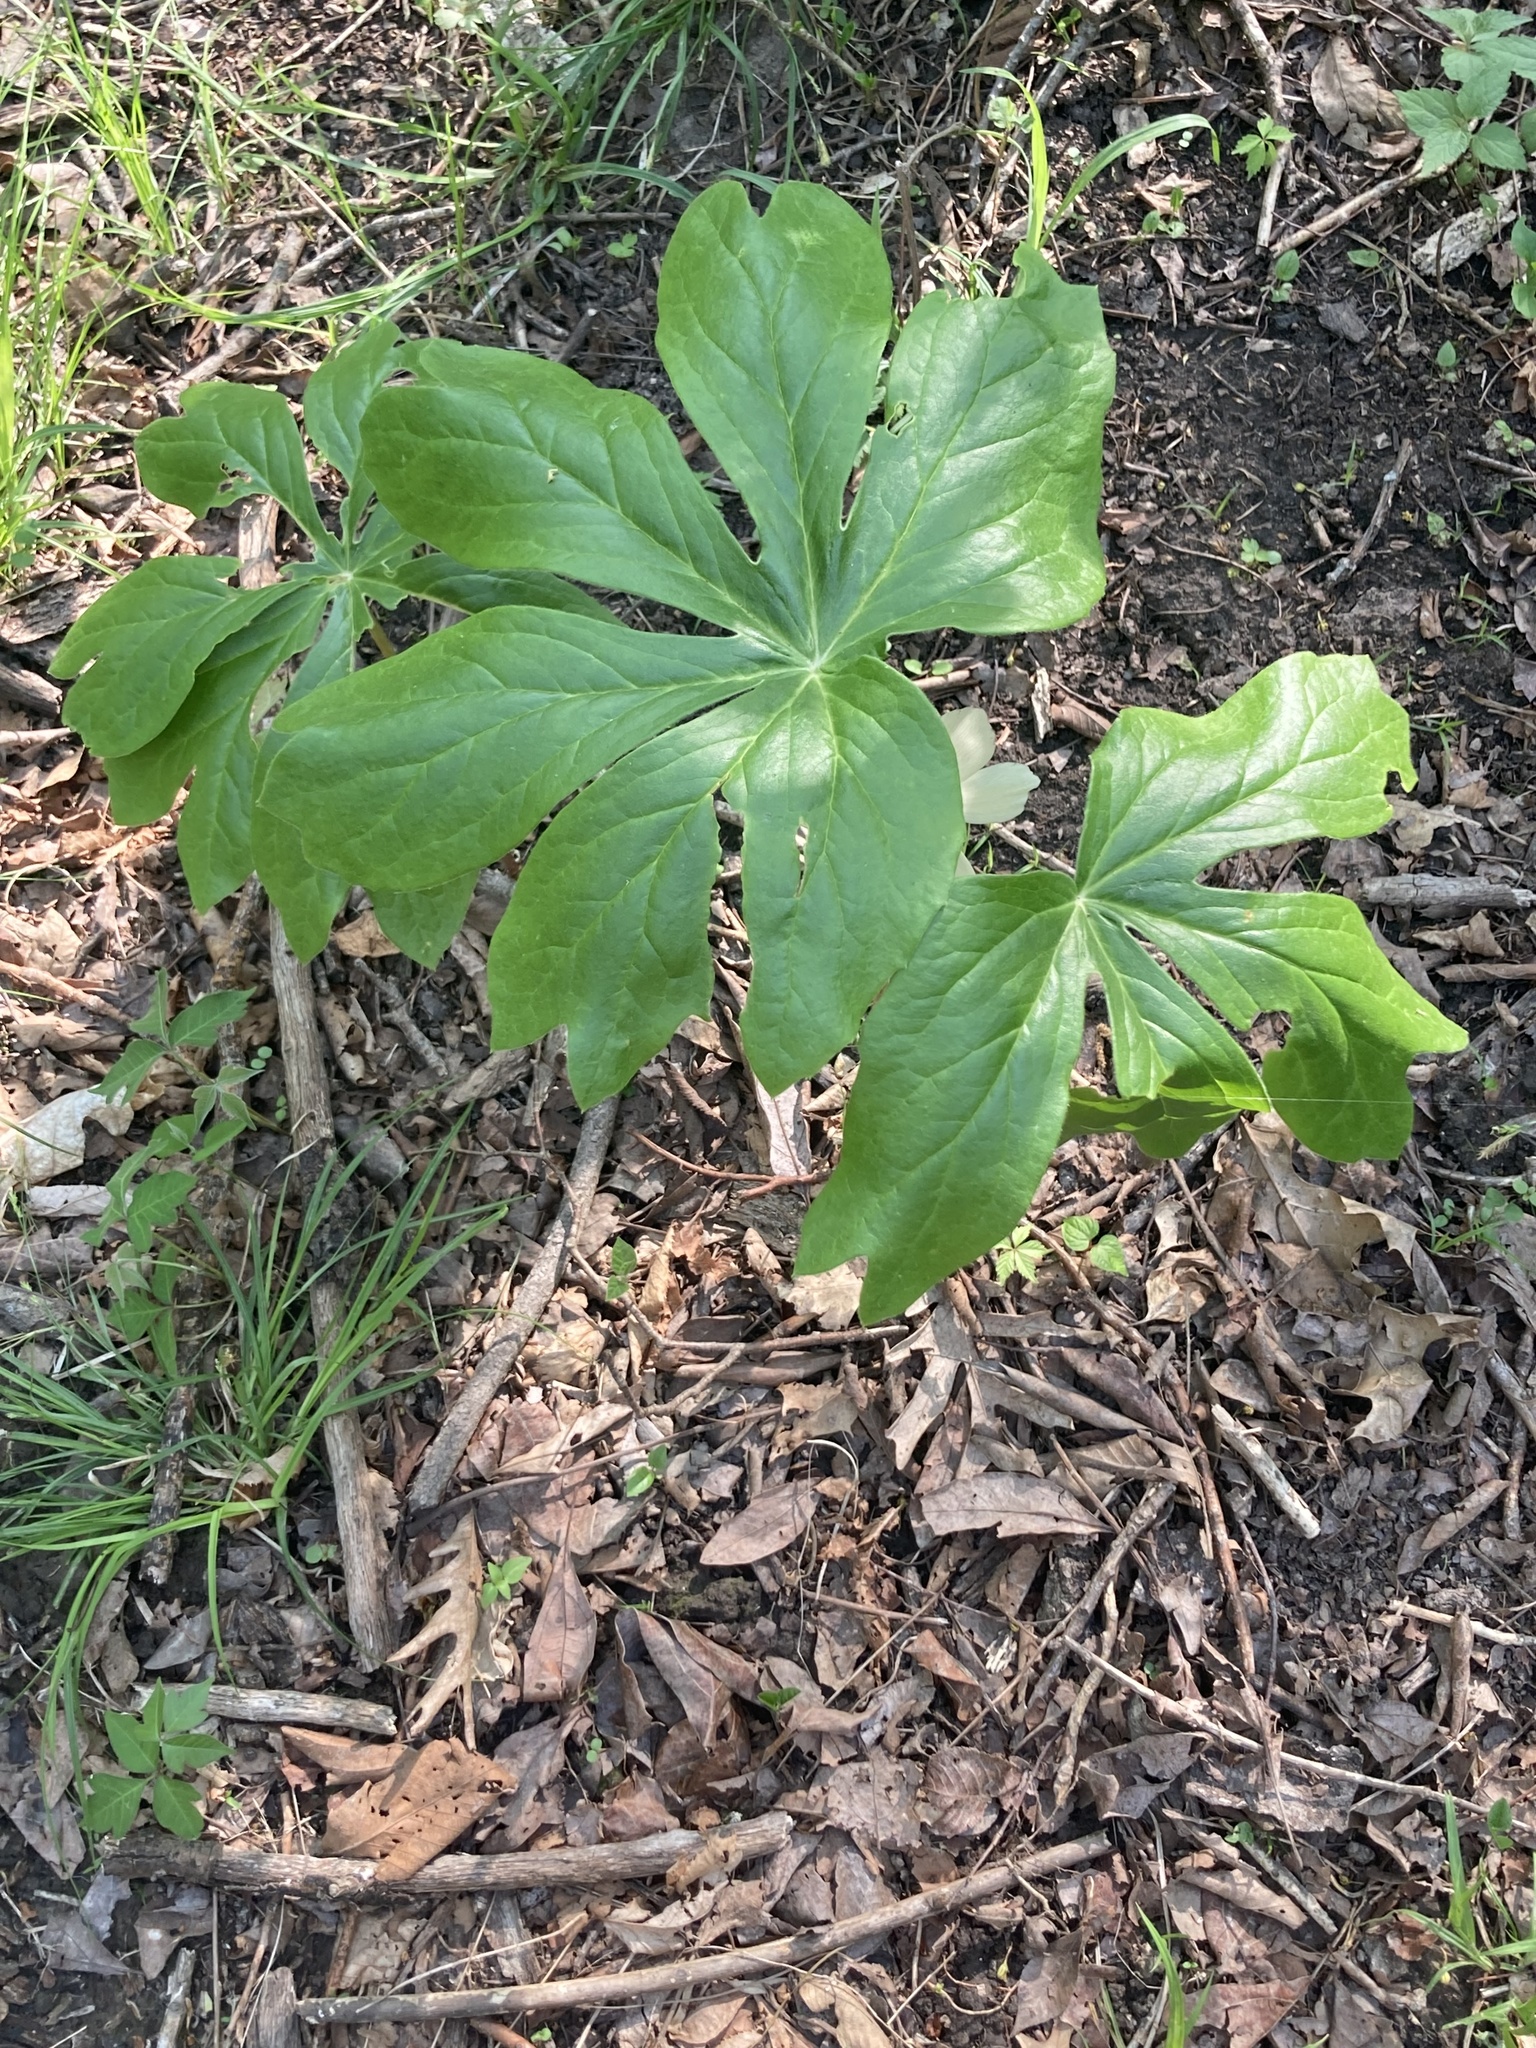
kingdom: Plantae
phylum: Tracheophyta
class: Magnoliopsida
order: Ranunculales
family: Berberidaceae
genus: Podophyllum
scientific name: Podophyllum peltatum
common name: Wild mandrake
